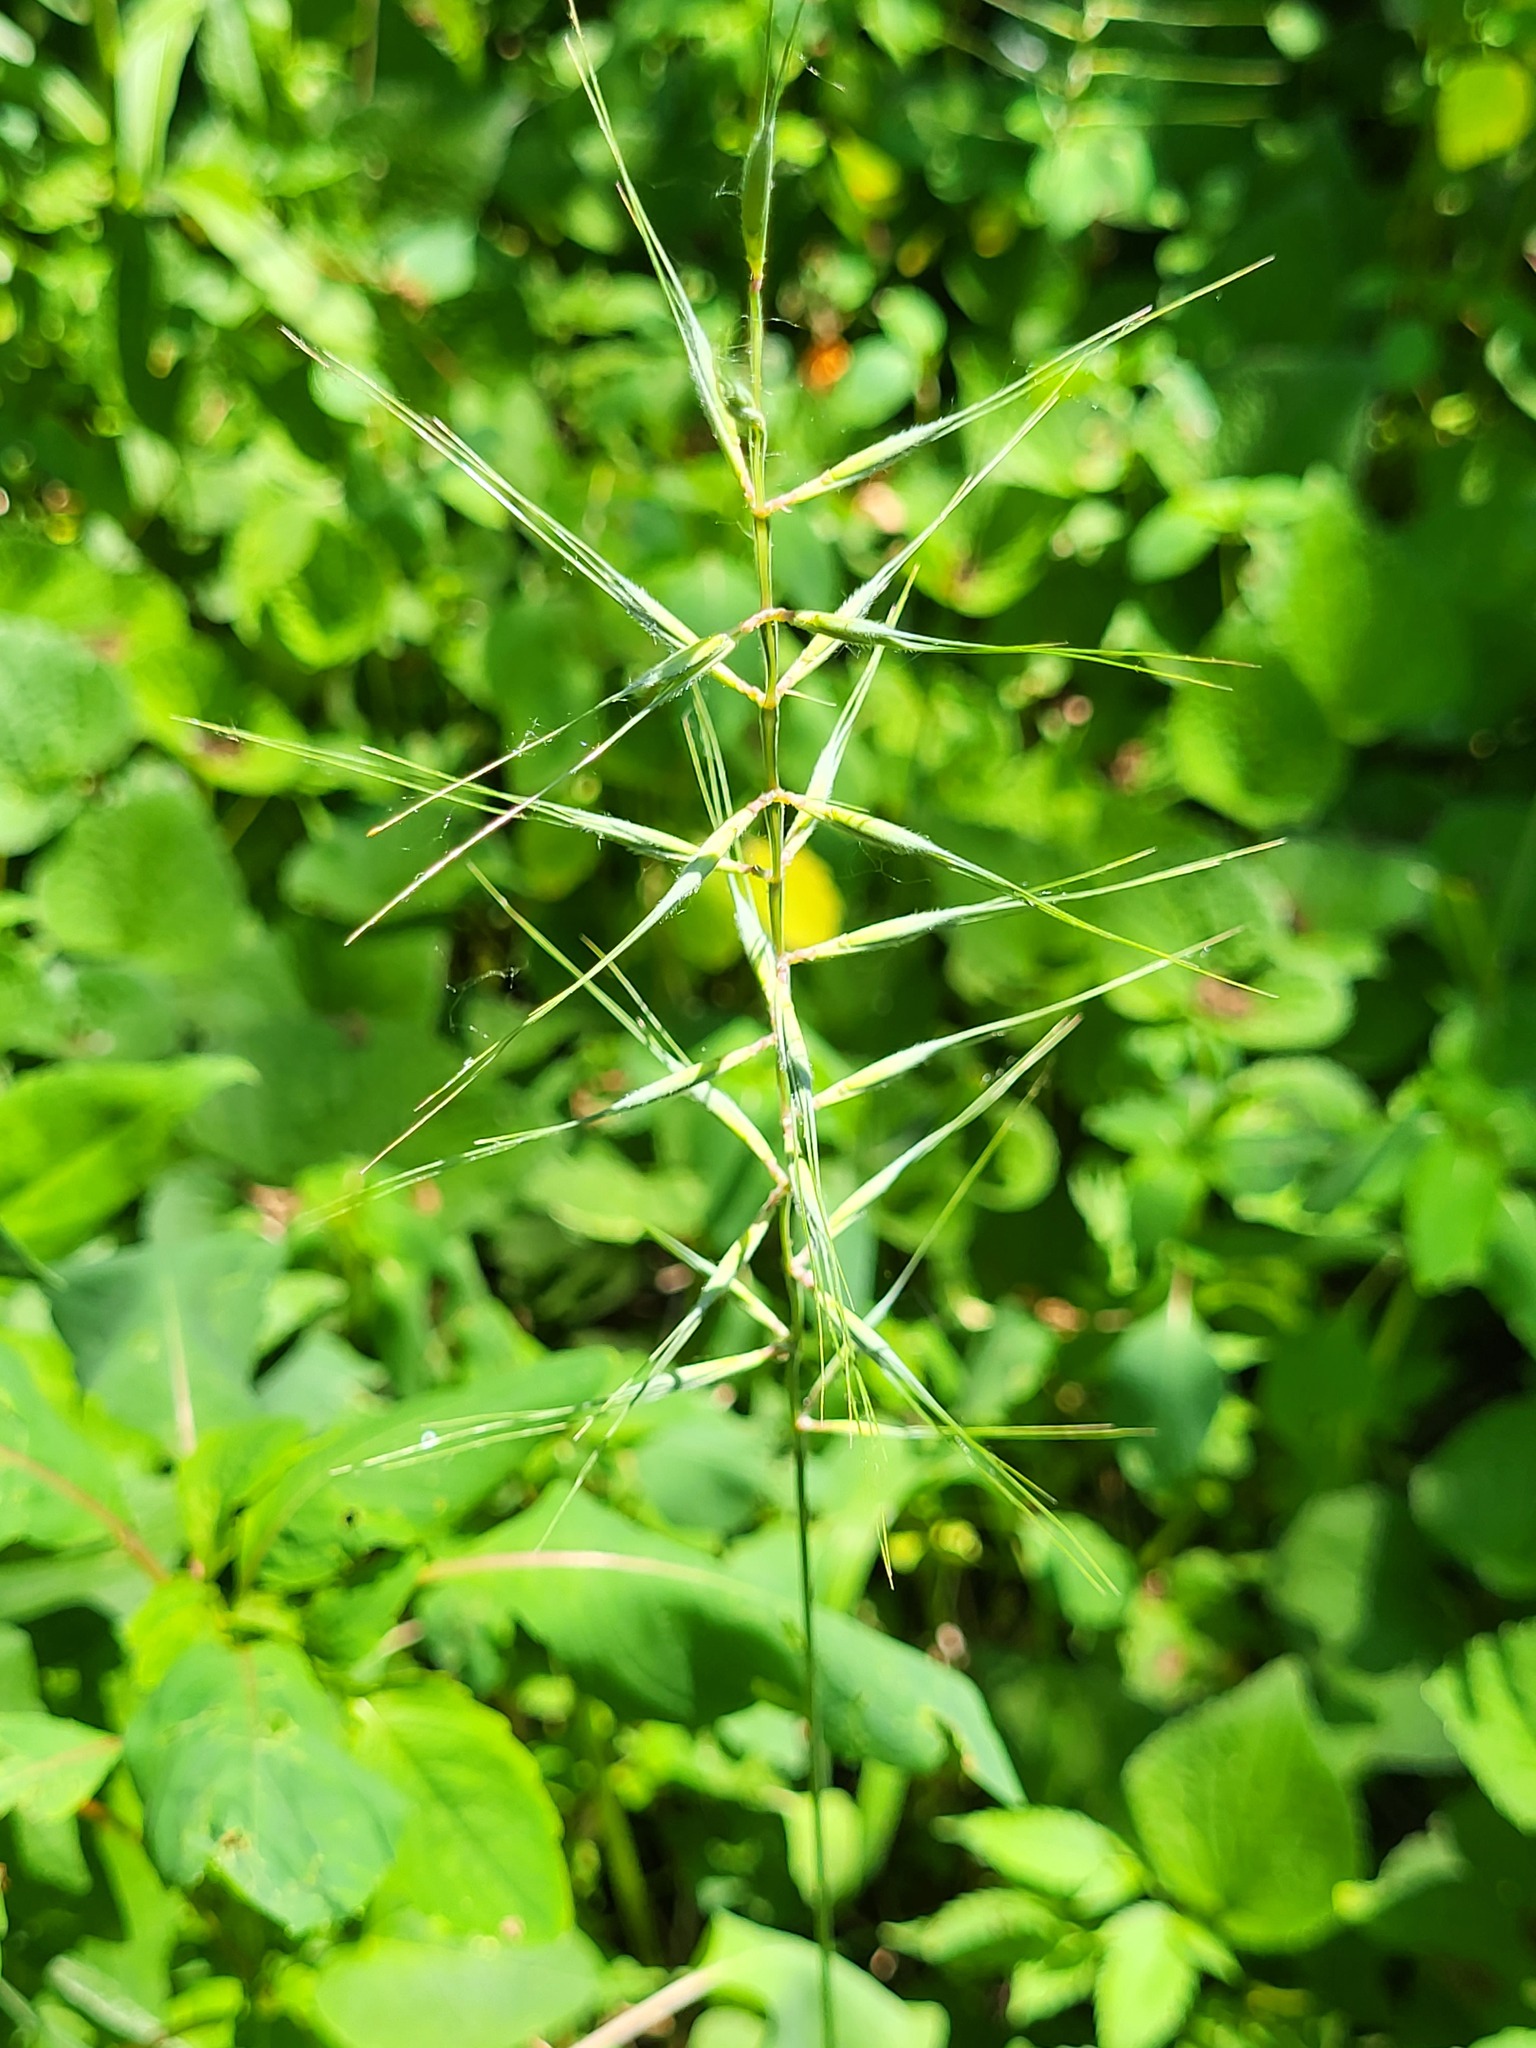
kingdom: Plantae
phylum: Tracheophyta
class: Liliopsida
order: Poales
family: Poaceae
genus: Elymus
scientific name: Elymus hystrix
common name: Bottlebrush grass
